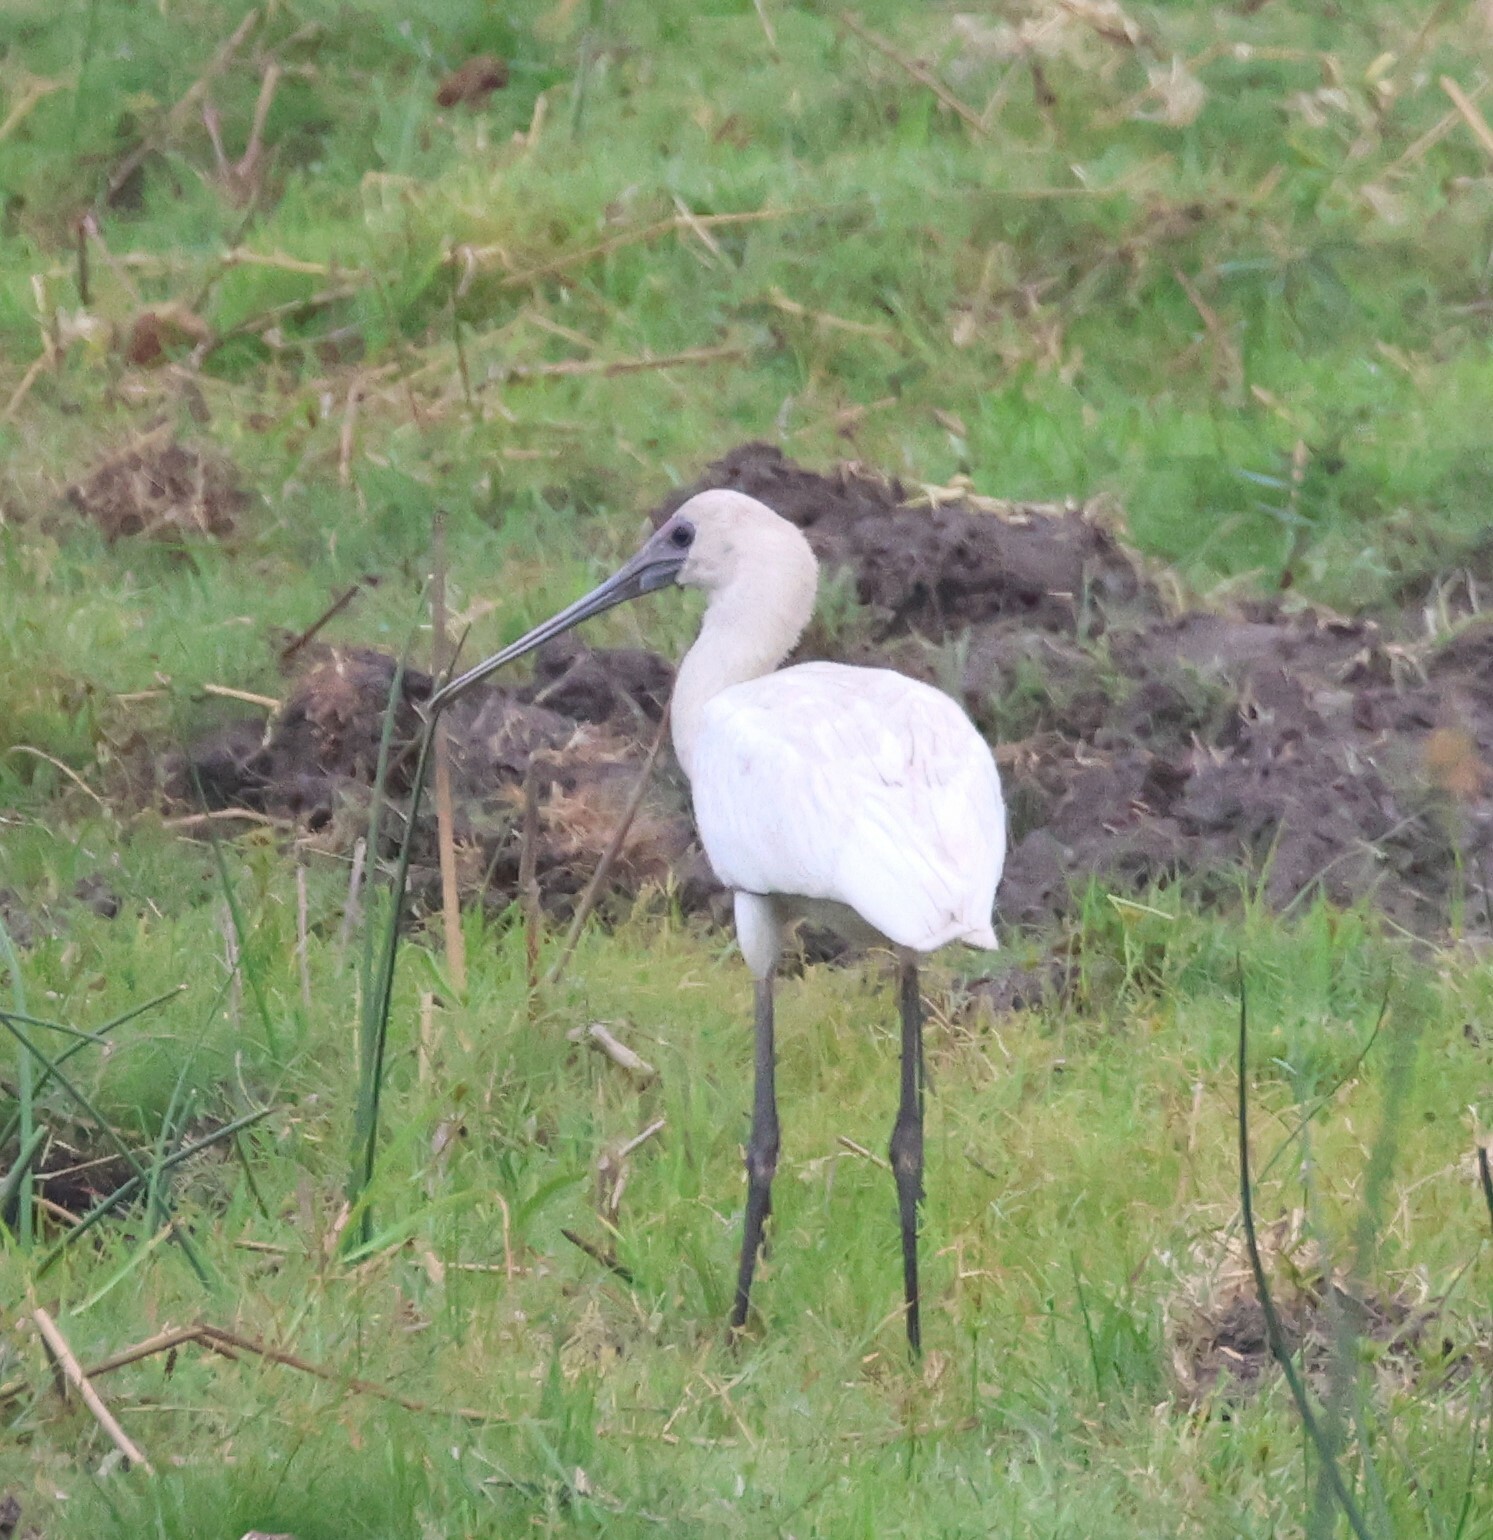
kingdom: Animalia
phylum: Chordata
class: Aves
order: Pelecaniformes
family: Threskiornithidae
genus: Platalea
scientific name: Platalea alba
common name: African spoonbill
